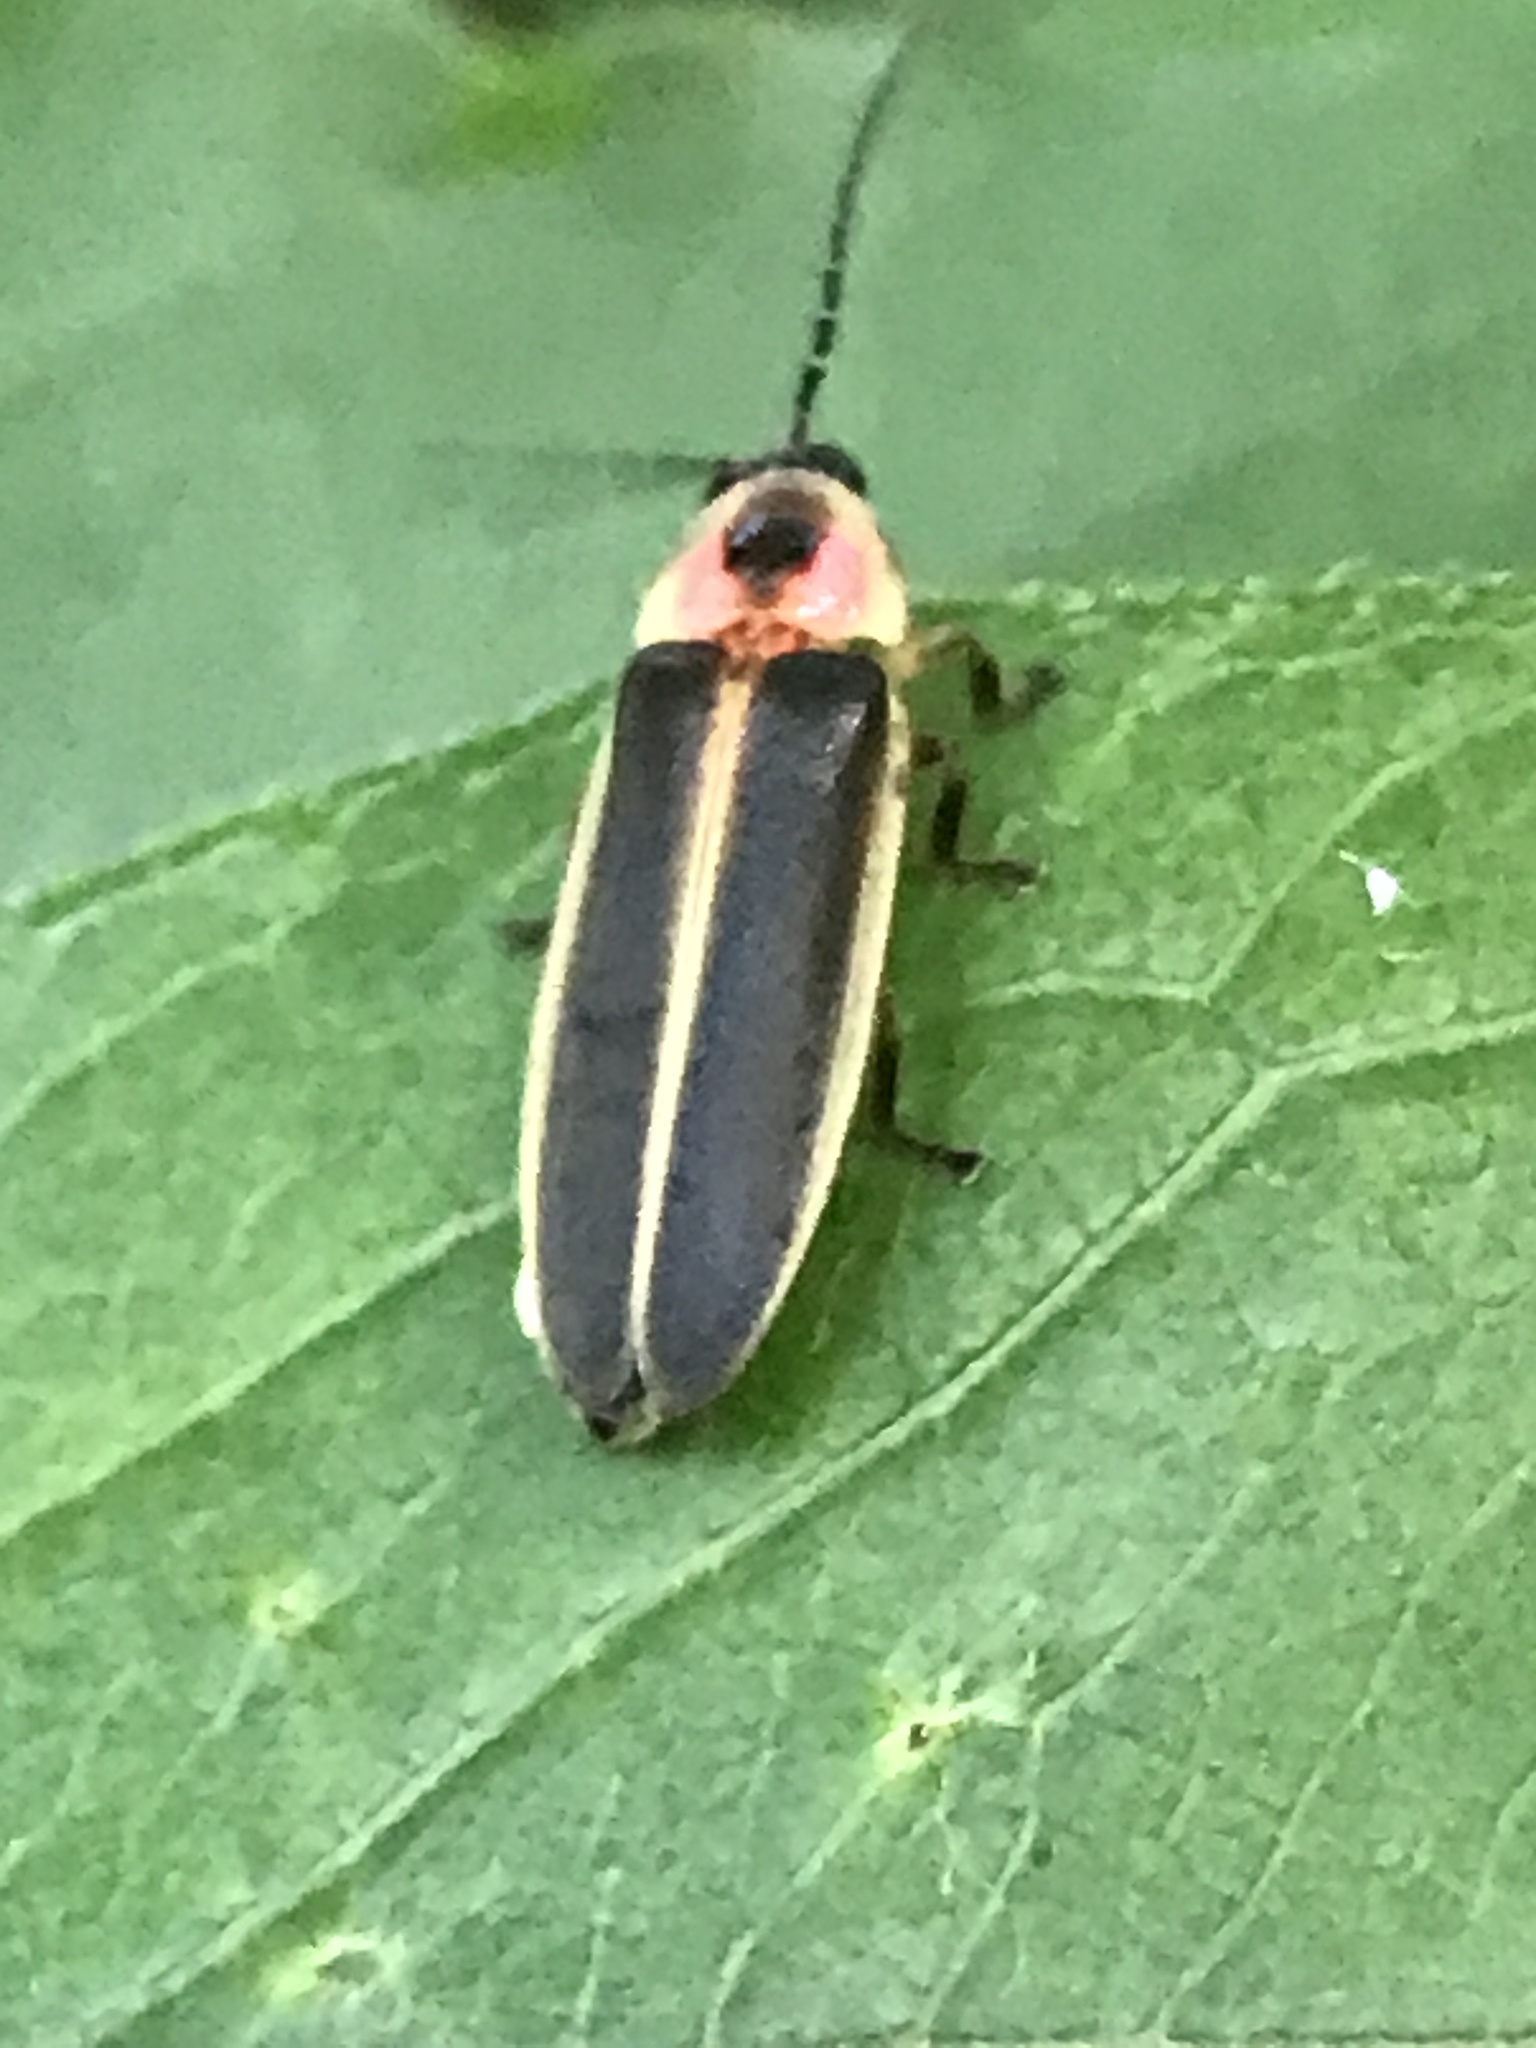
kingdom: Animalia
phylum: Arthropoda
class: Insecta
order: Coleoptera
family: Lampyridae
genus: Photinus
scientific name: Photinus pyralis
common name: Big dipper firefly
